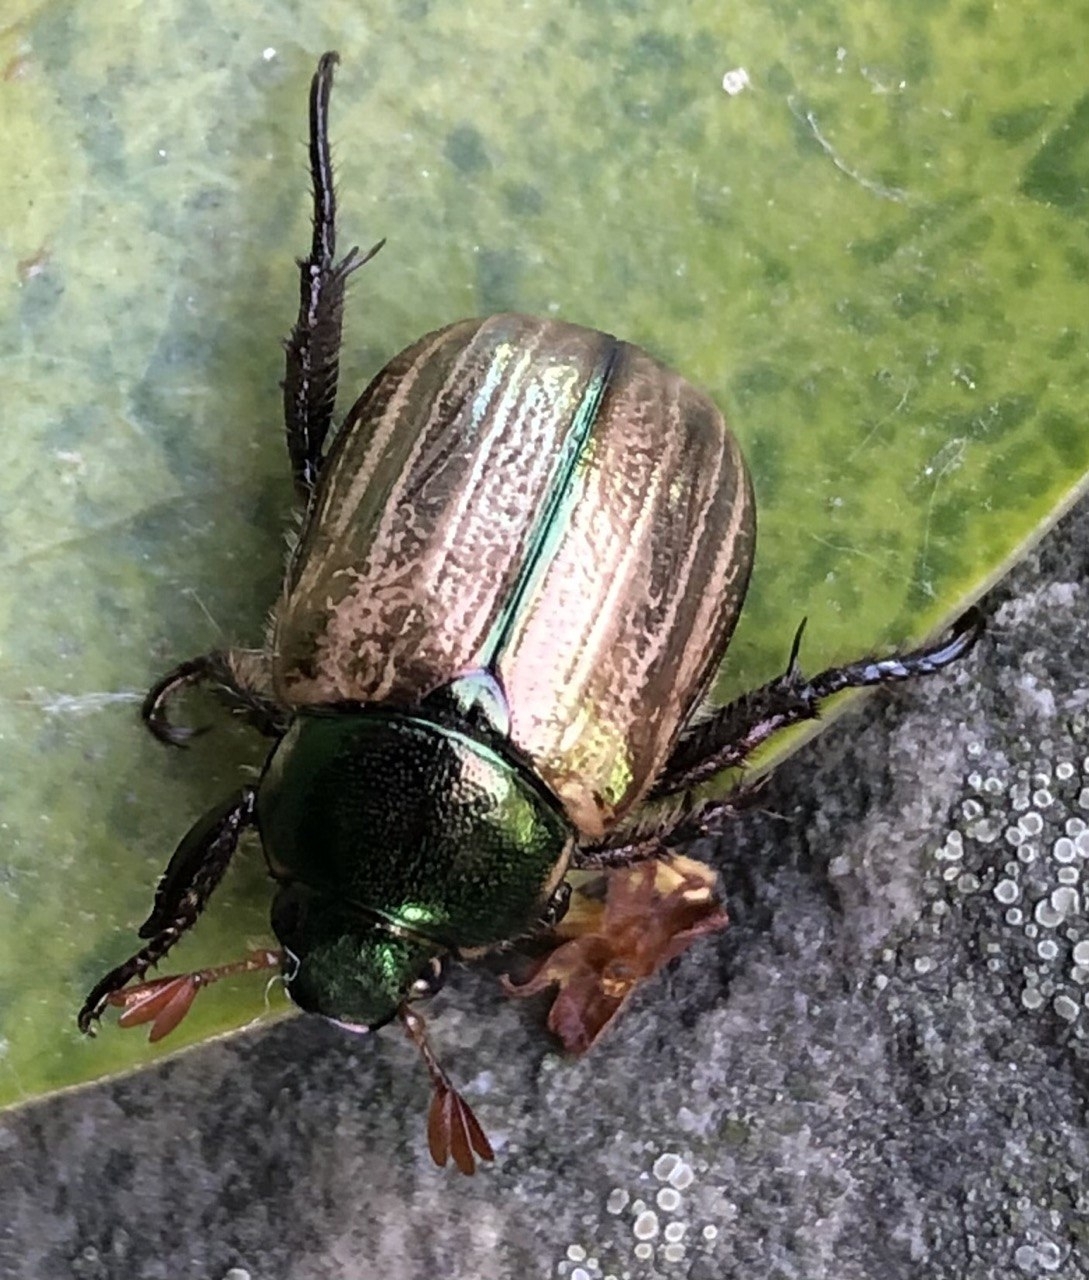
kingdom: Animalia
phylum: Arthropoda
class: Insecta
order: Coleoptera
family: Scarabaeidae
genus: Mimela
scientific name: Mimela junii
